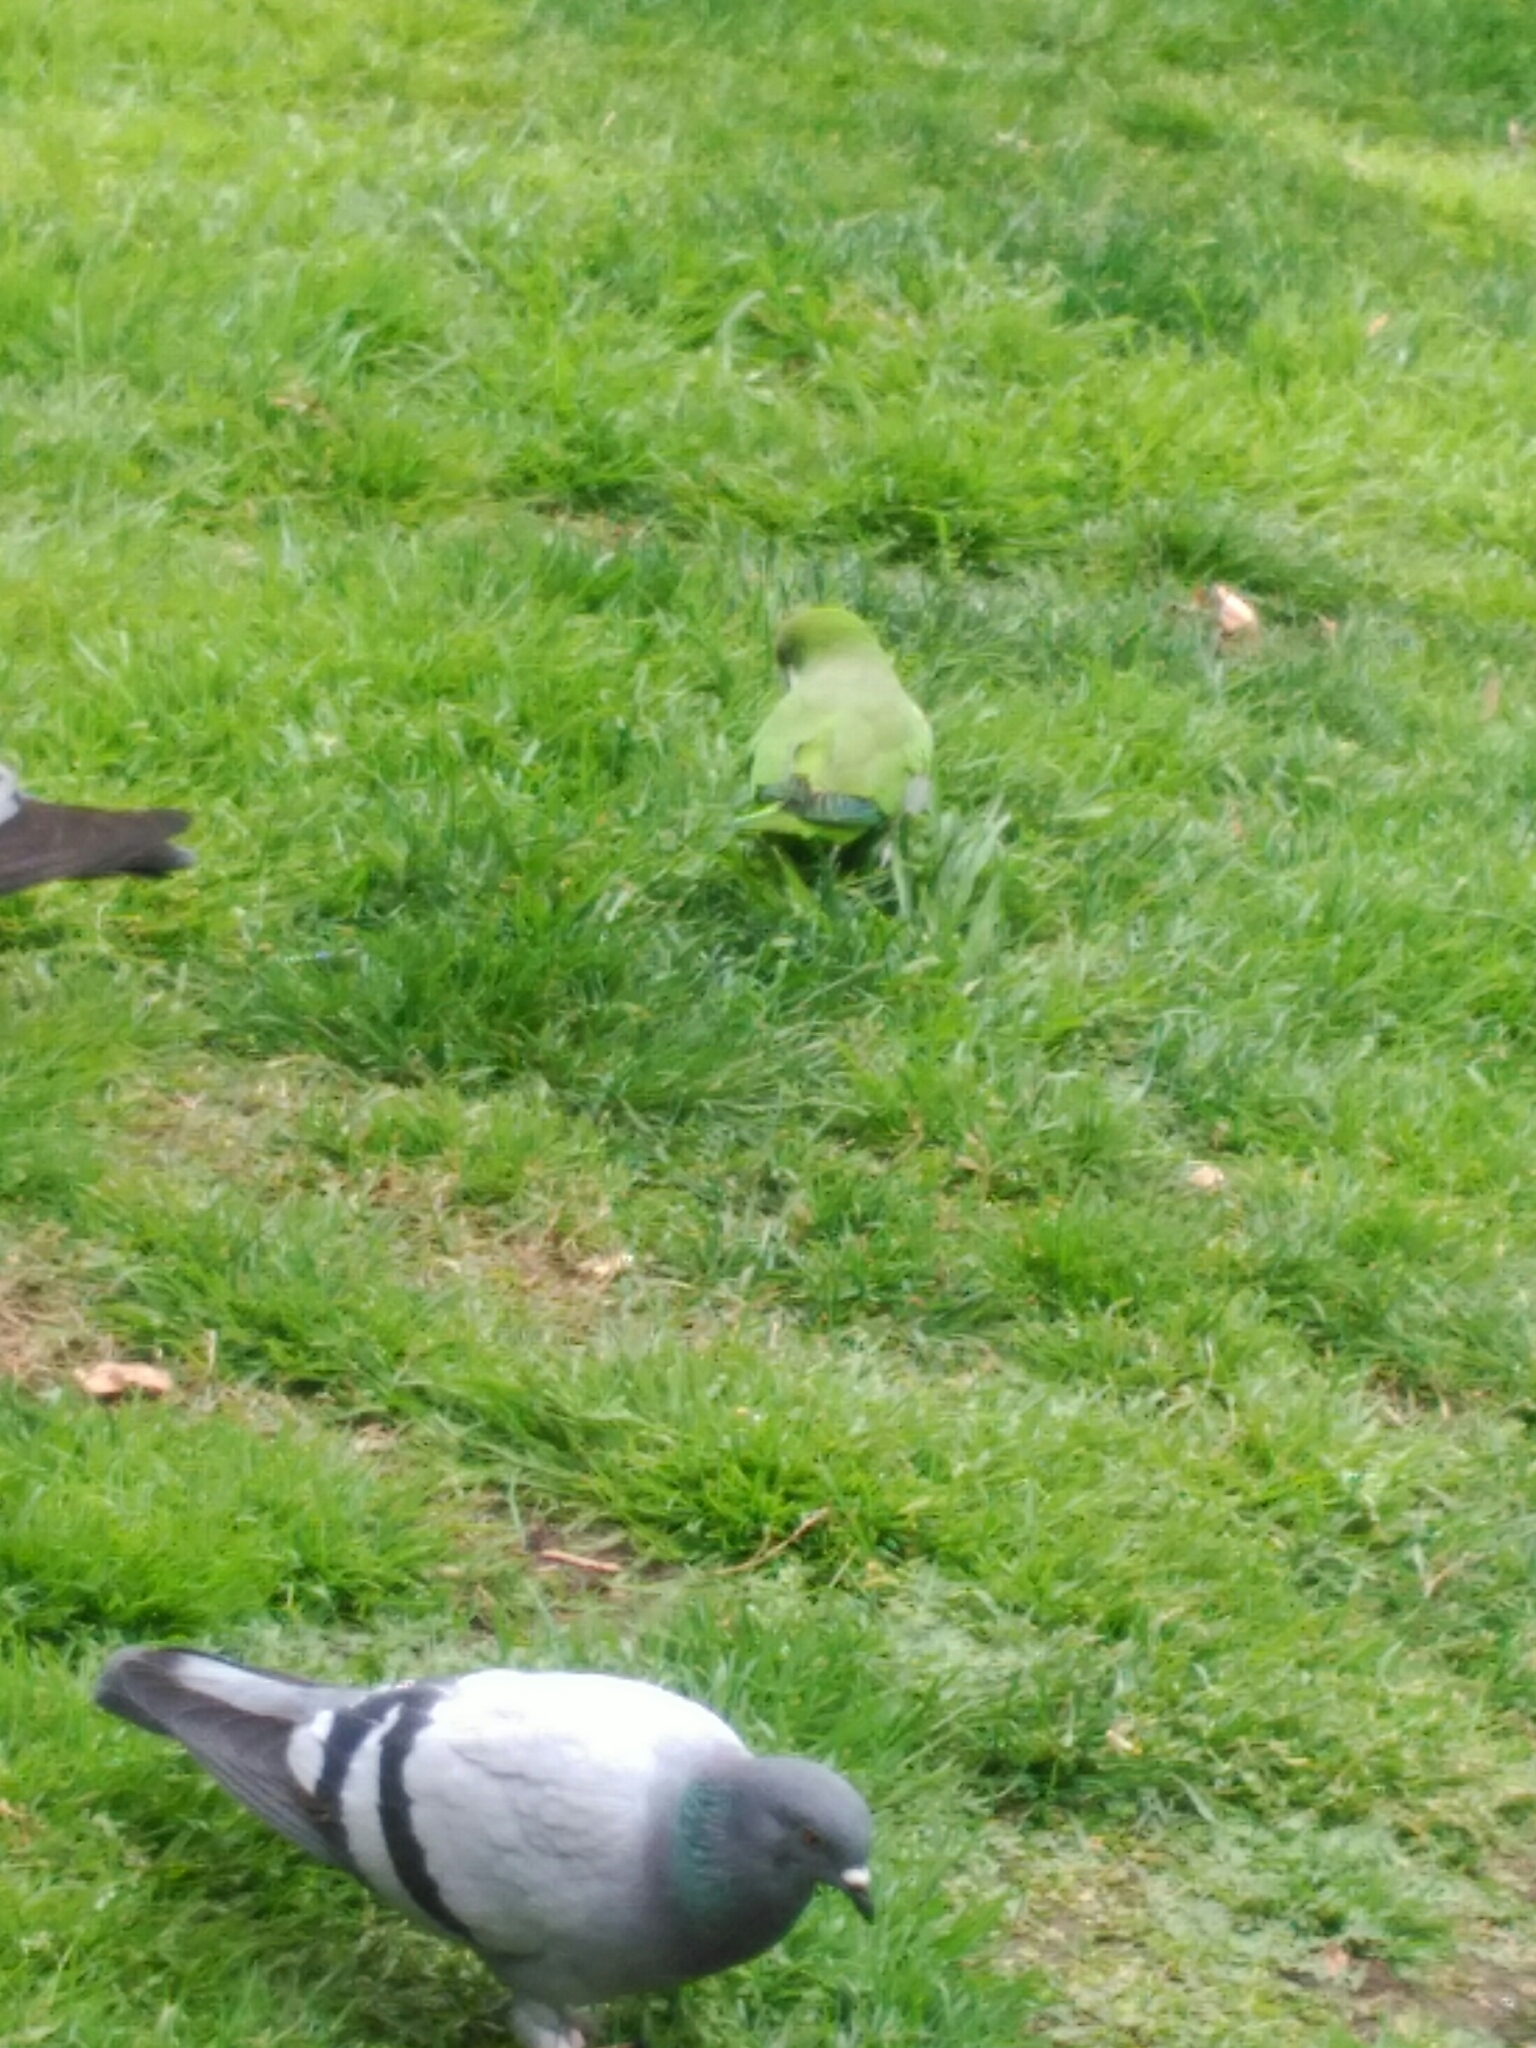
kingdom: Animalia
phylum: Chordata
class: Aves
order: Psittaciformes
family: Psittacidae
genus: Myiopsitta
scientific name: Myiopsitta monachus
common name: Monk parakeet
